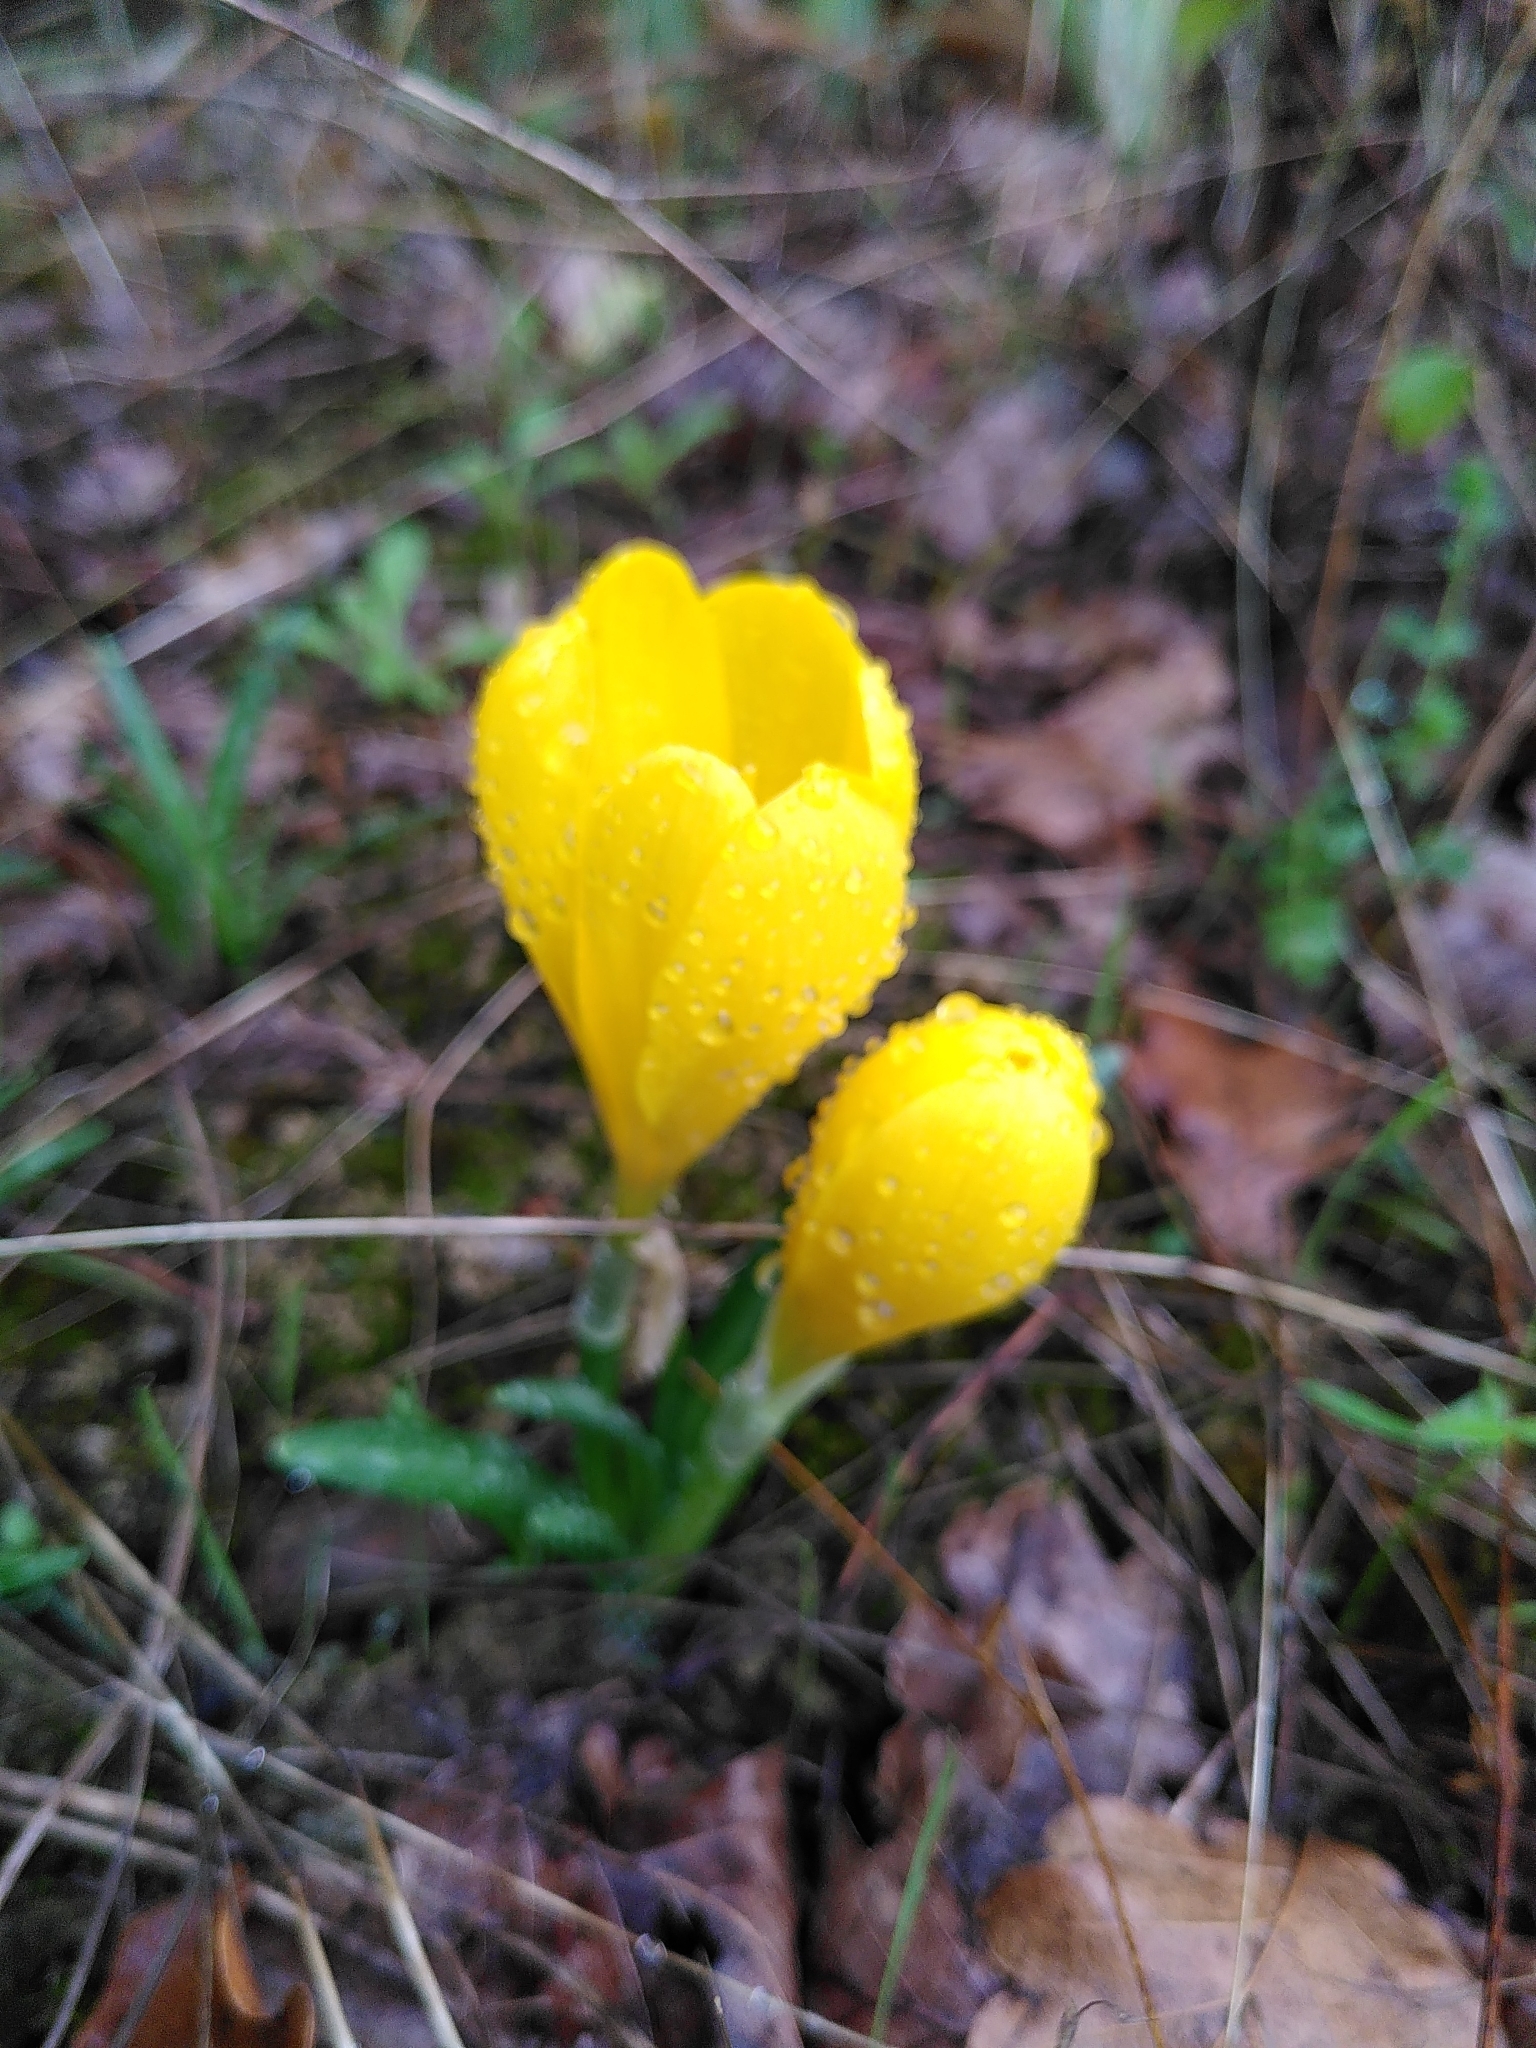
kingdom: Plantae
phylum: Tracheophyta
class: Liliopsida
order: Asparagales
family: Amaryllidaceae
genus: Sternbergia
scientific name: Sternbergia lutea
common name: Winter daffodil
